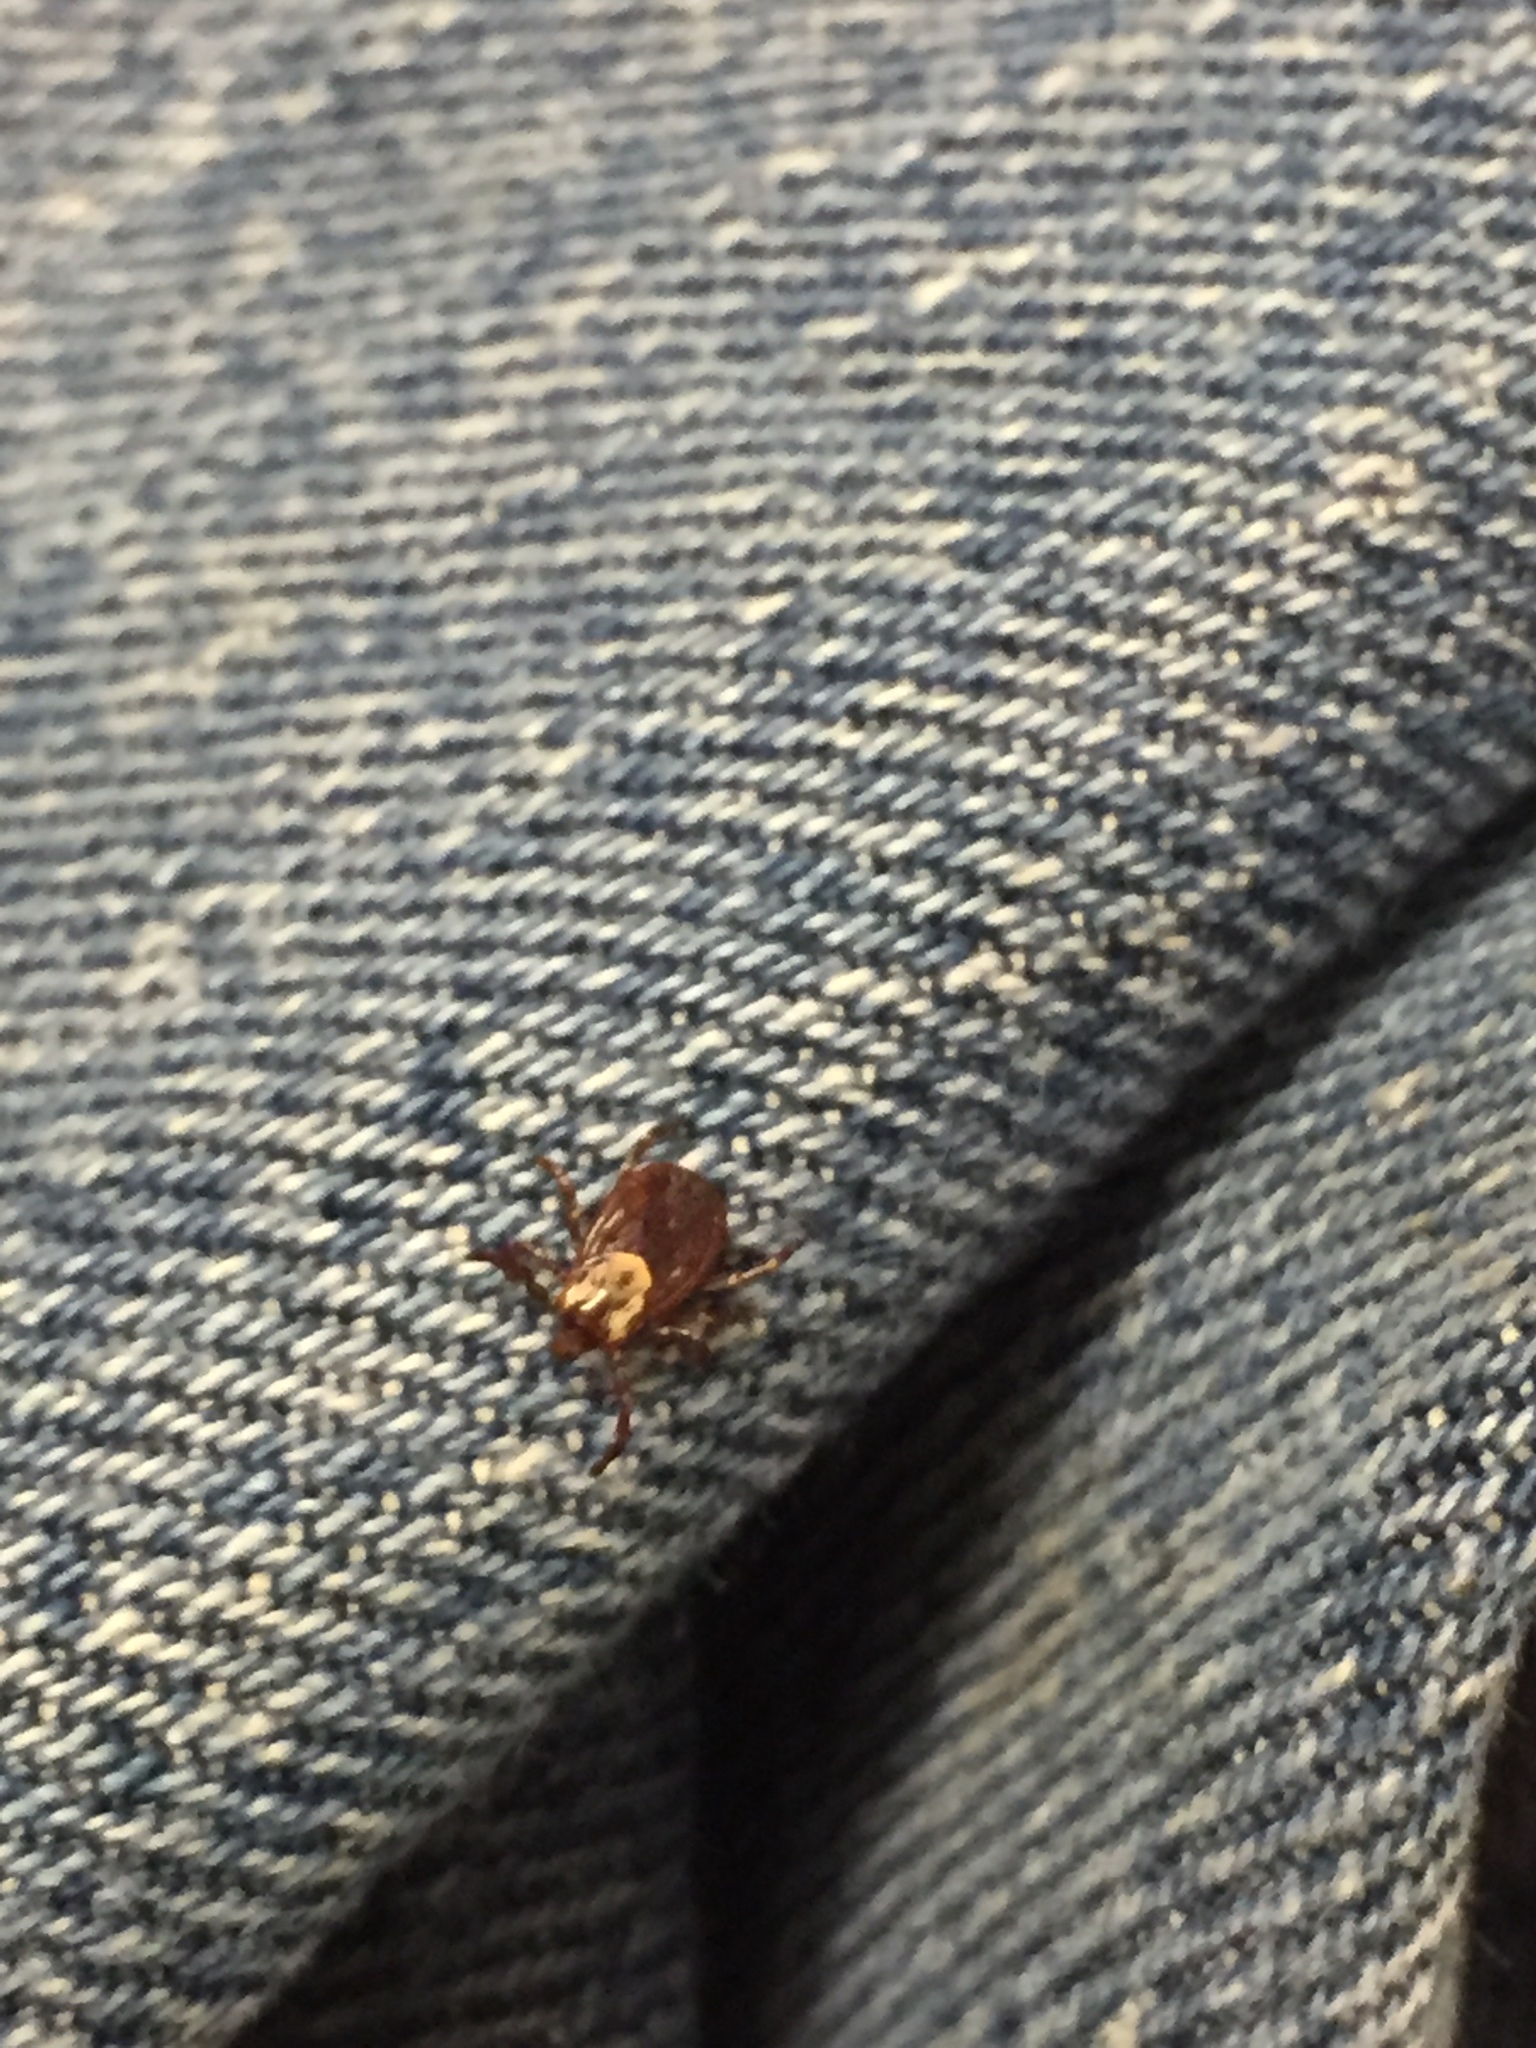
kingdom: Animalia
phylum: Arthropoda
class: Arachnida
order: Ixodida
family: Ixodidae
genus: Dermacentor
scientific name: Dermacentor variabilis
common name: American dog tick
